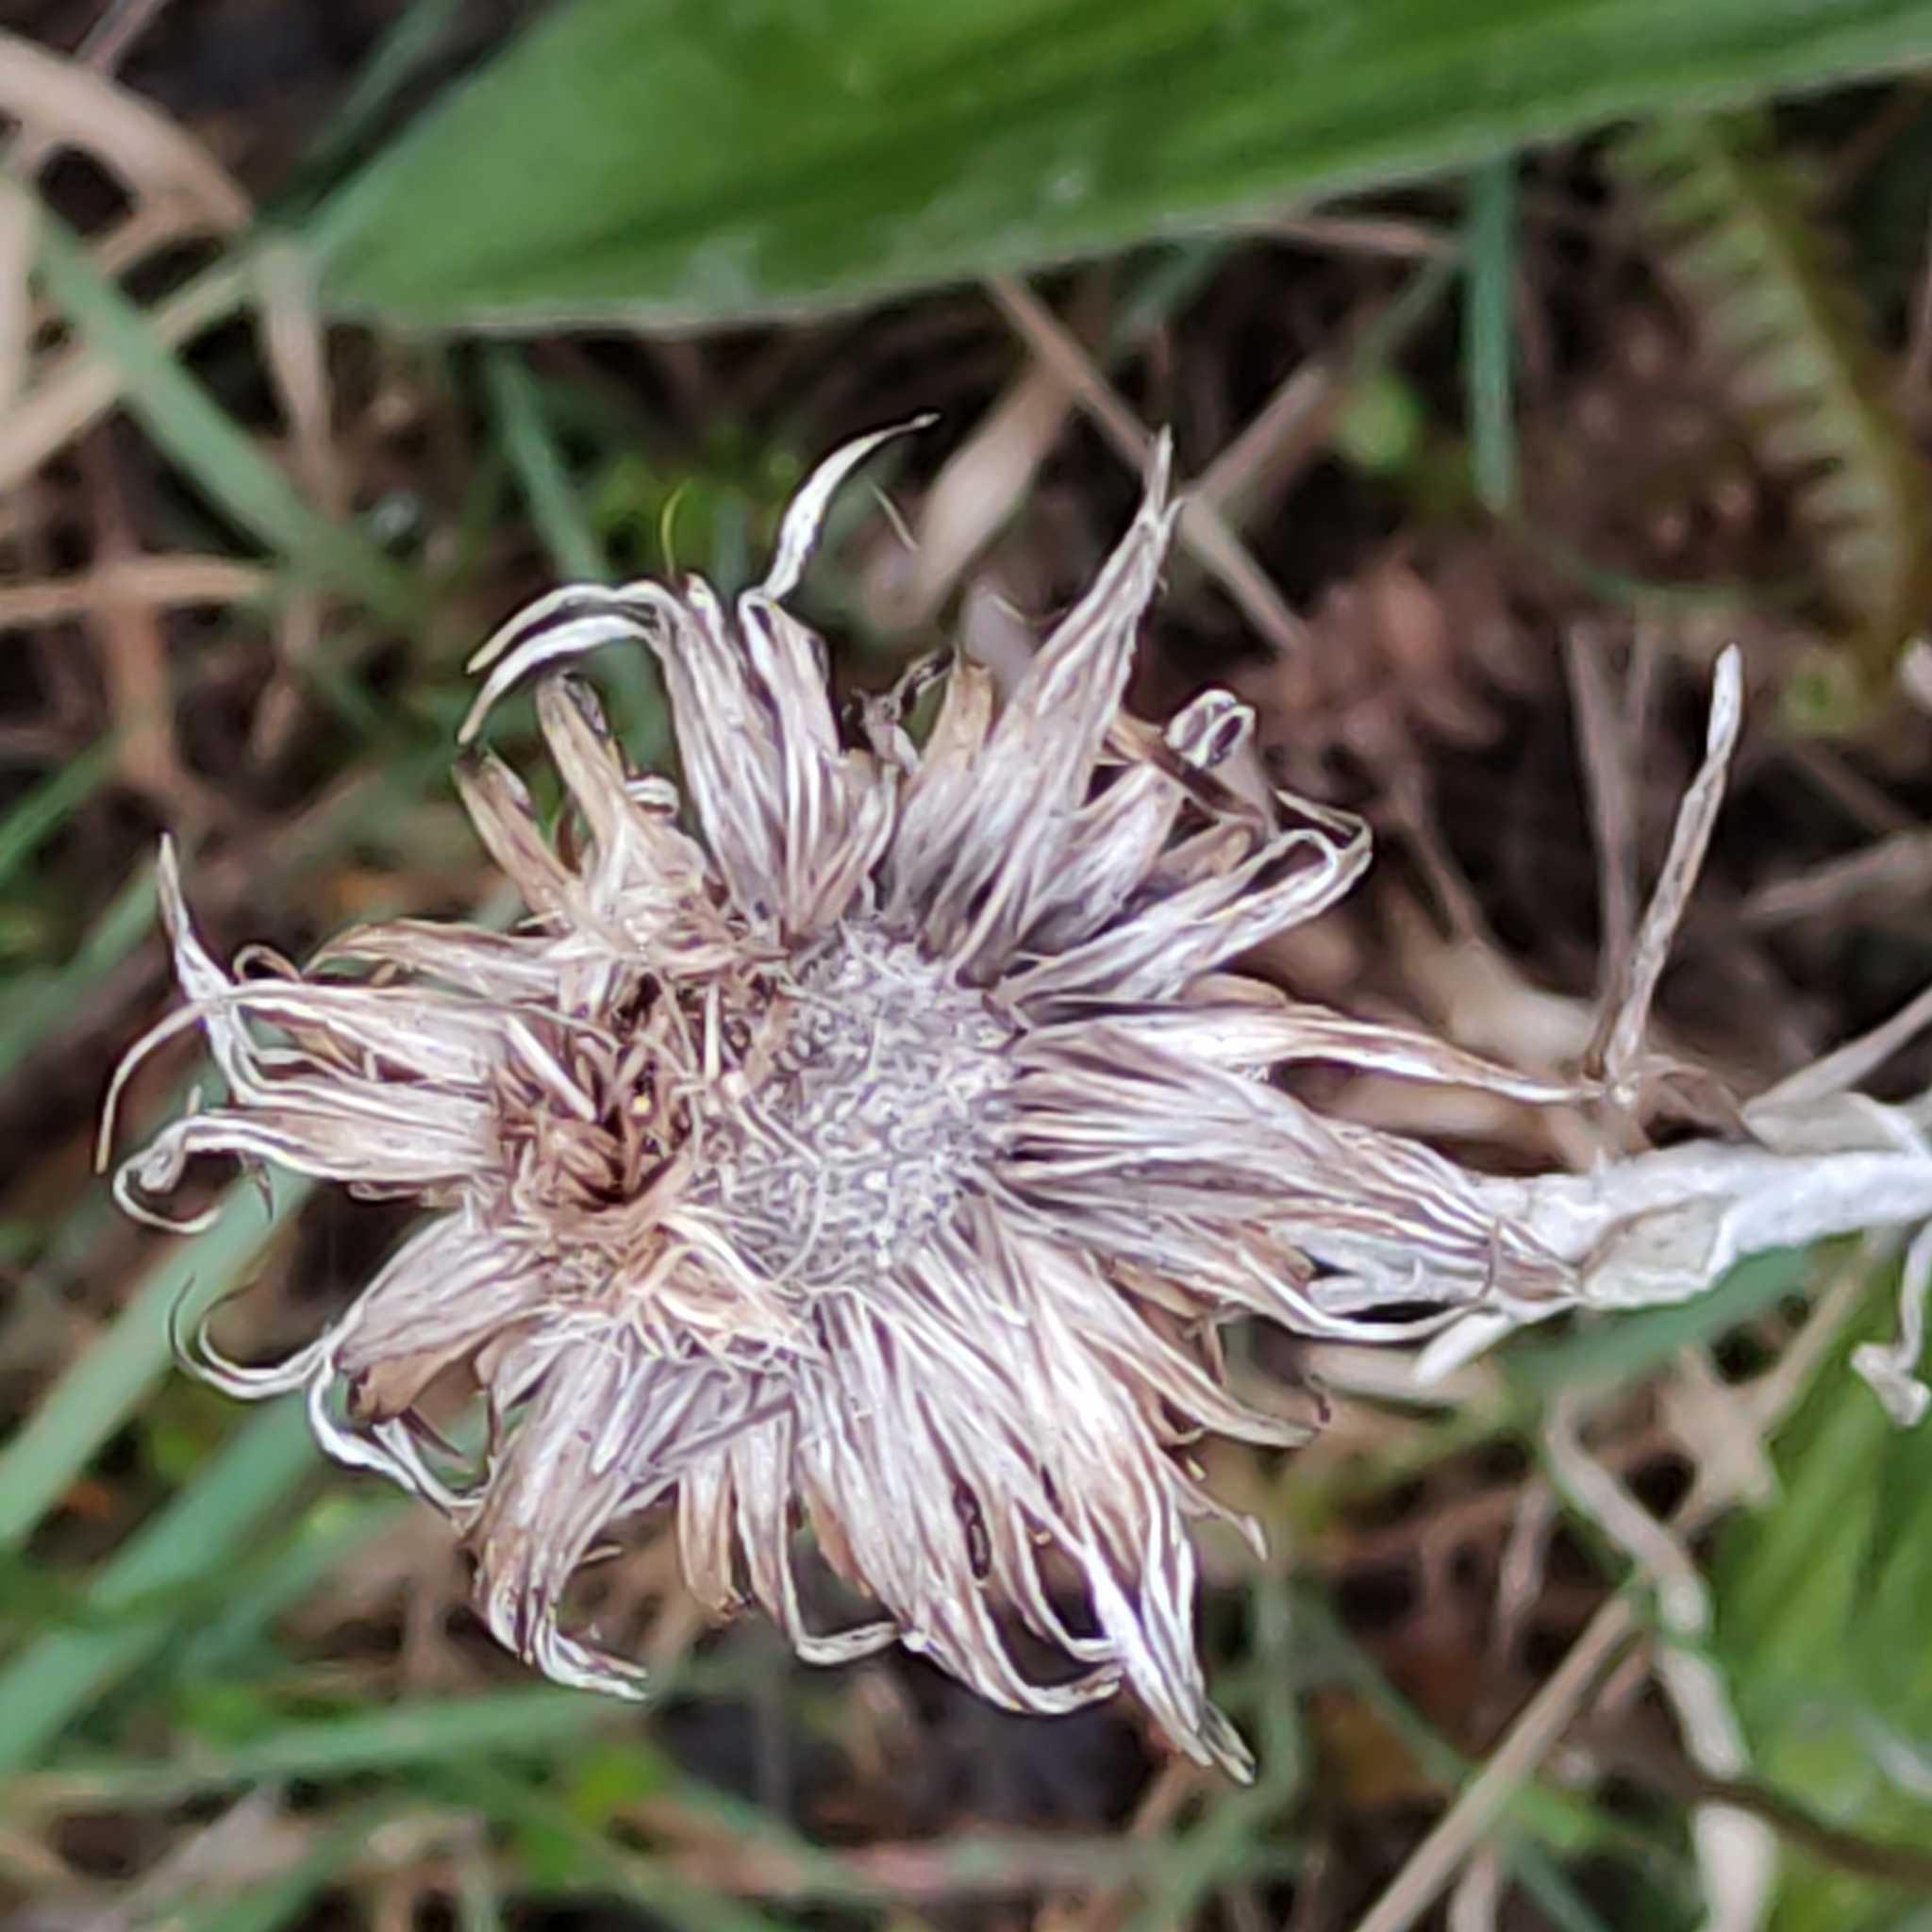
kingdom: Plantae
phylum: Tracheophyta
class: Magnoliopsida
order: Asterales
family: Asteraceae
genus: Celmisia
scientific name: Celmisia spectabilis
